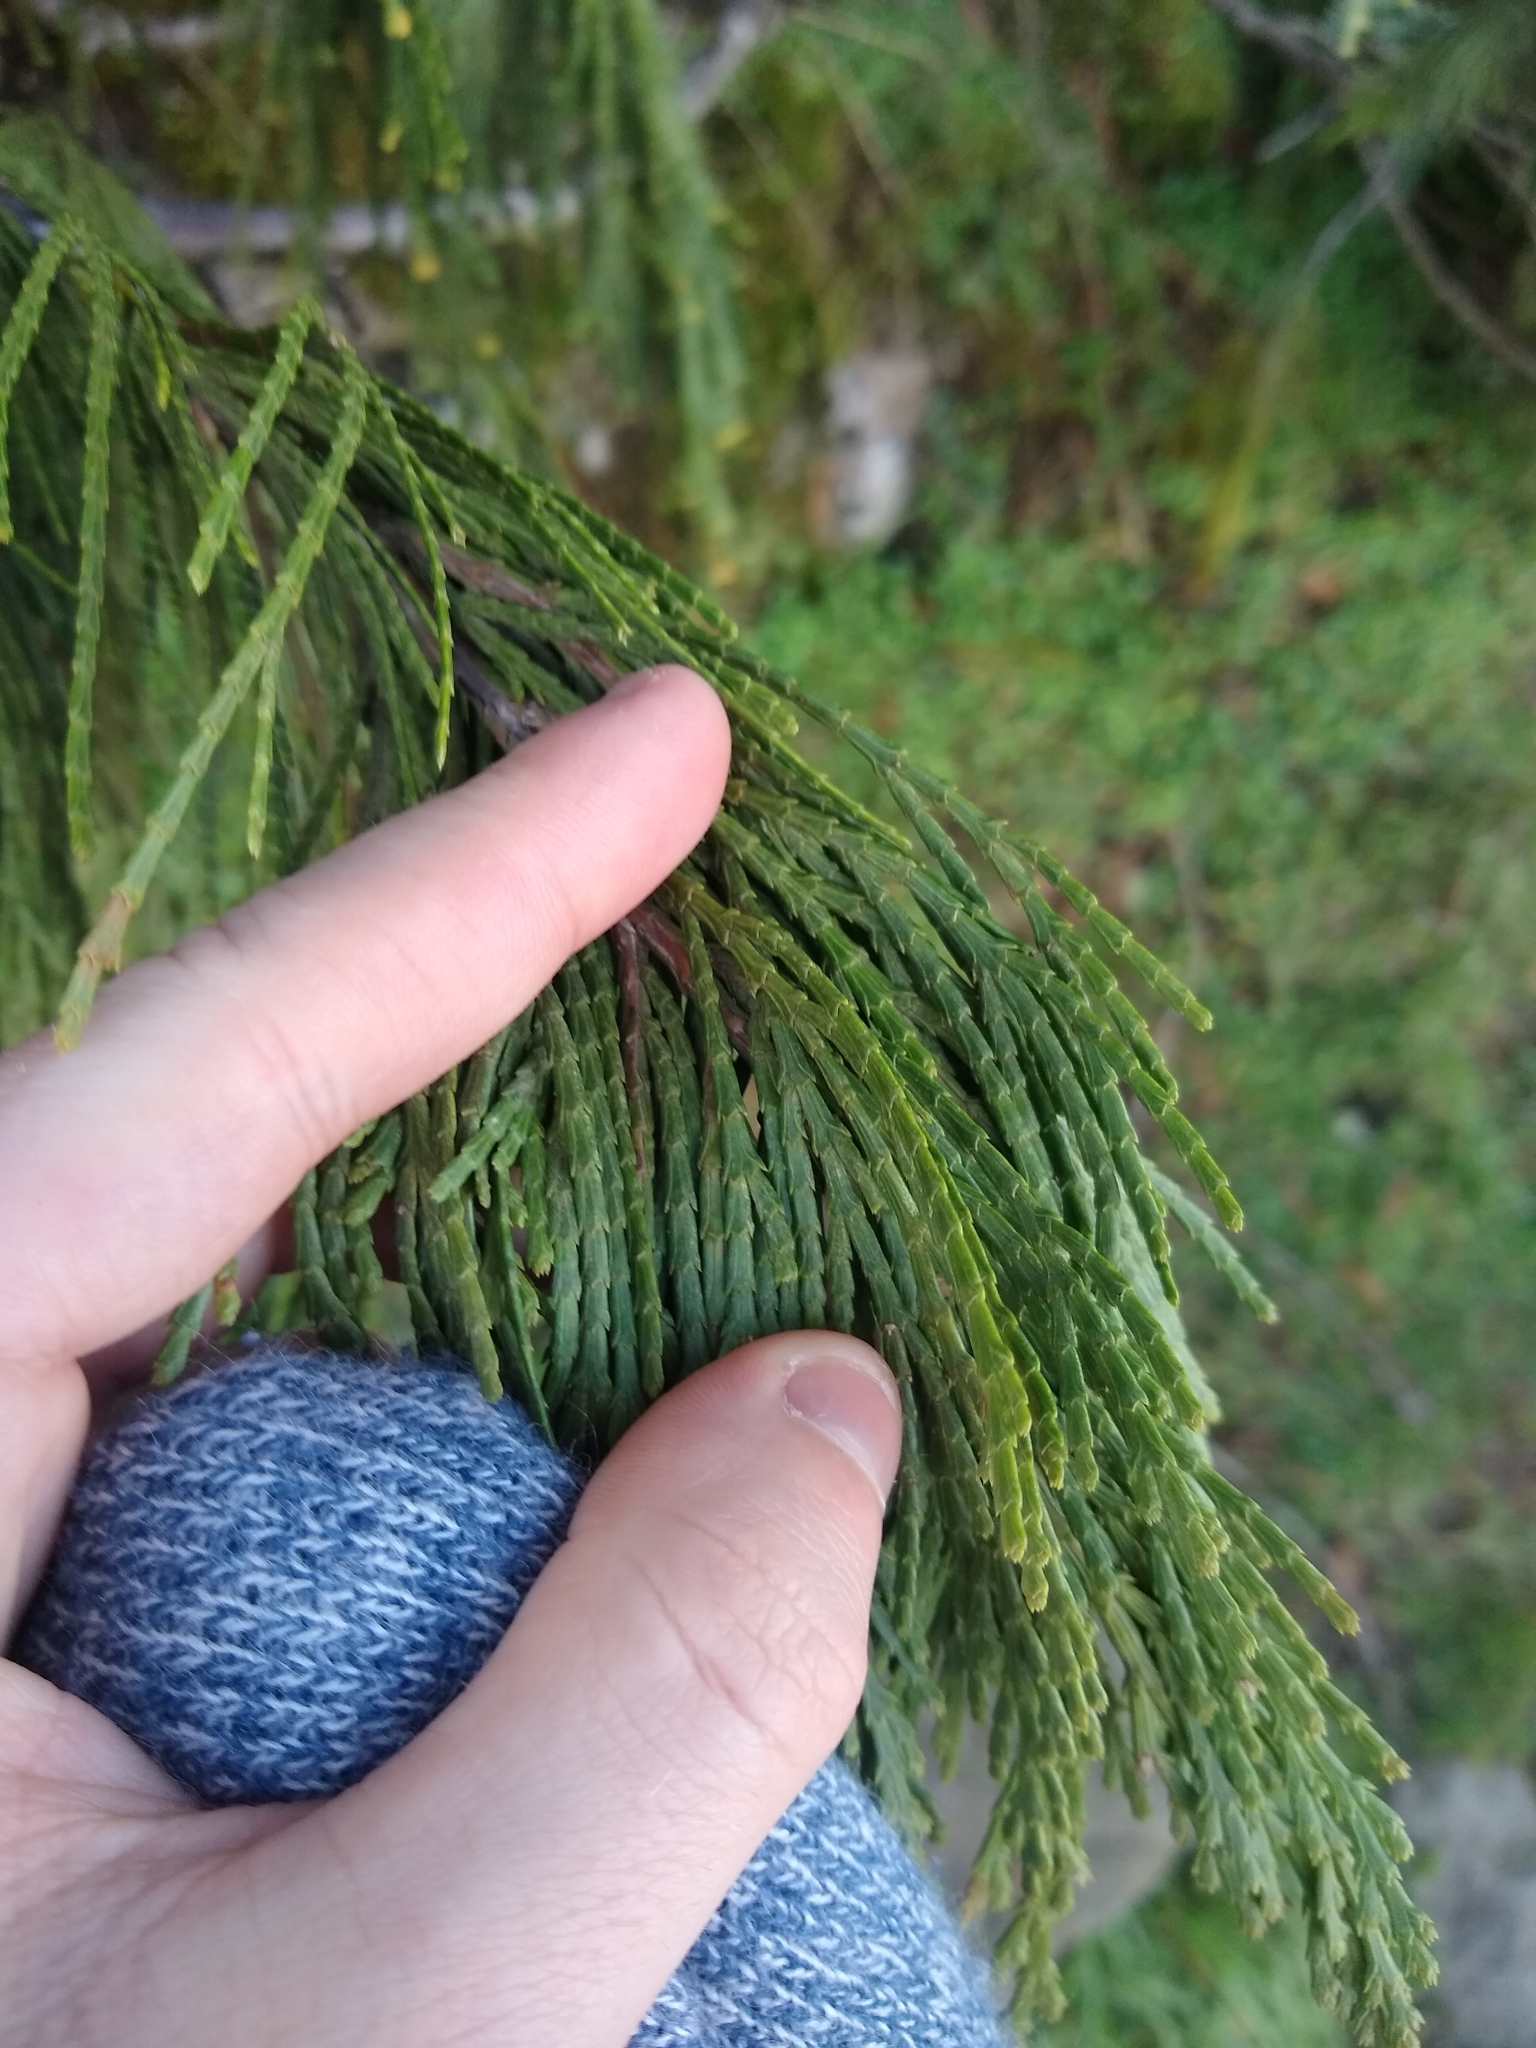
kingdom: Plantae
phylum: Tracheophyta
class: Pinopsida
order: Pinales
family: Cupressaceae
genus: Calocedrus
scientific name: Calocedrus decurrens
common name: Californian incense-cedar
